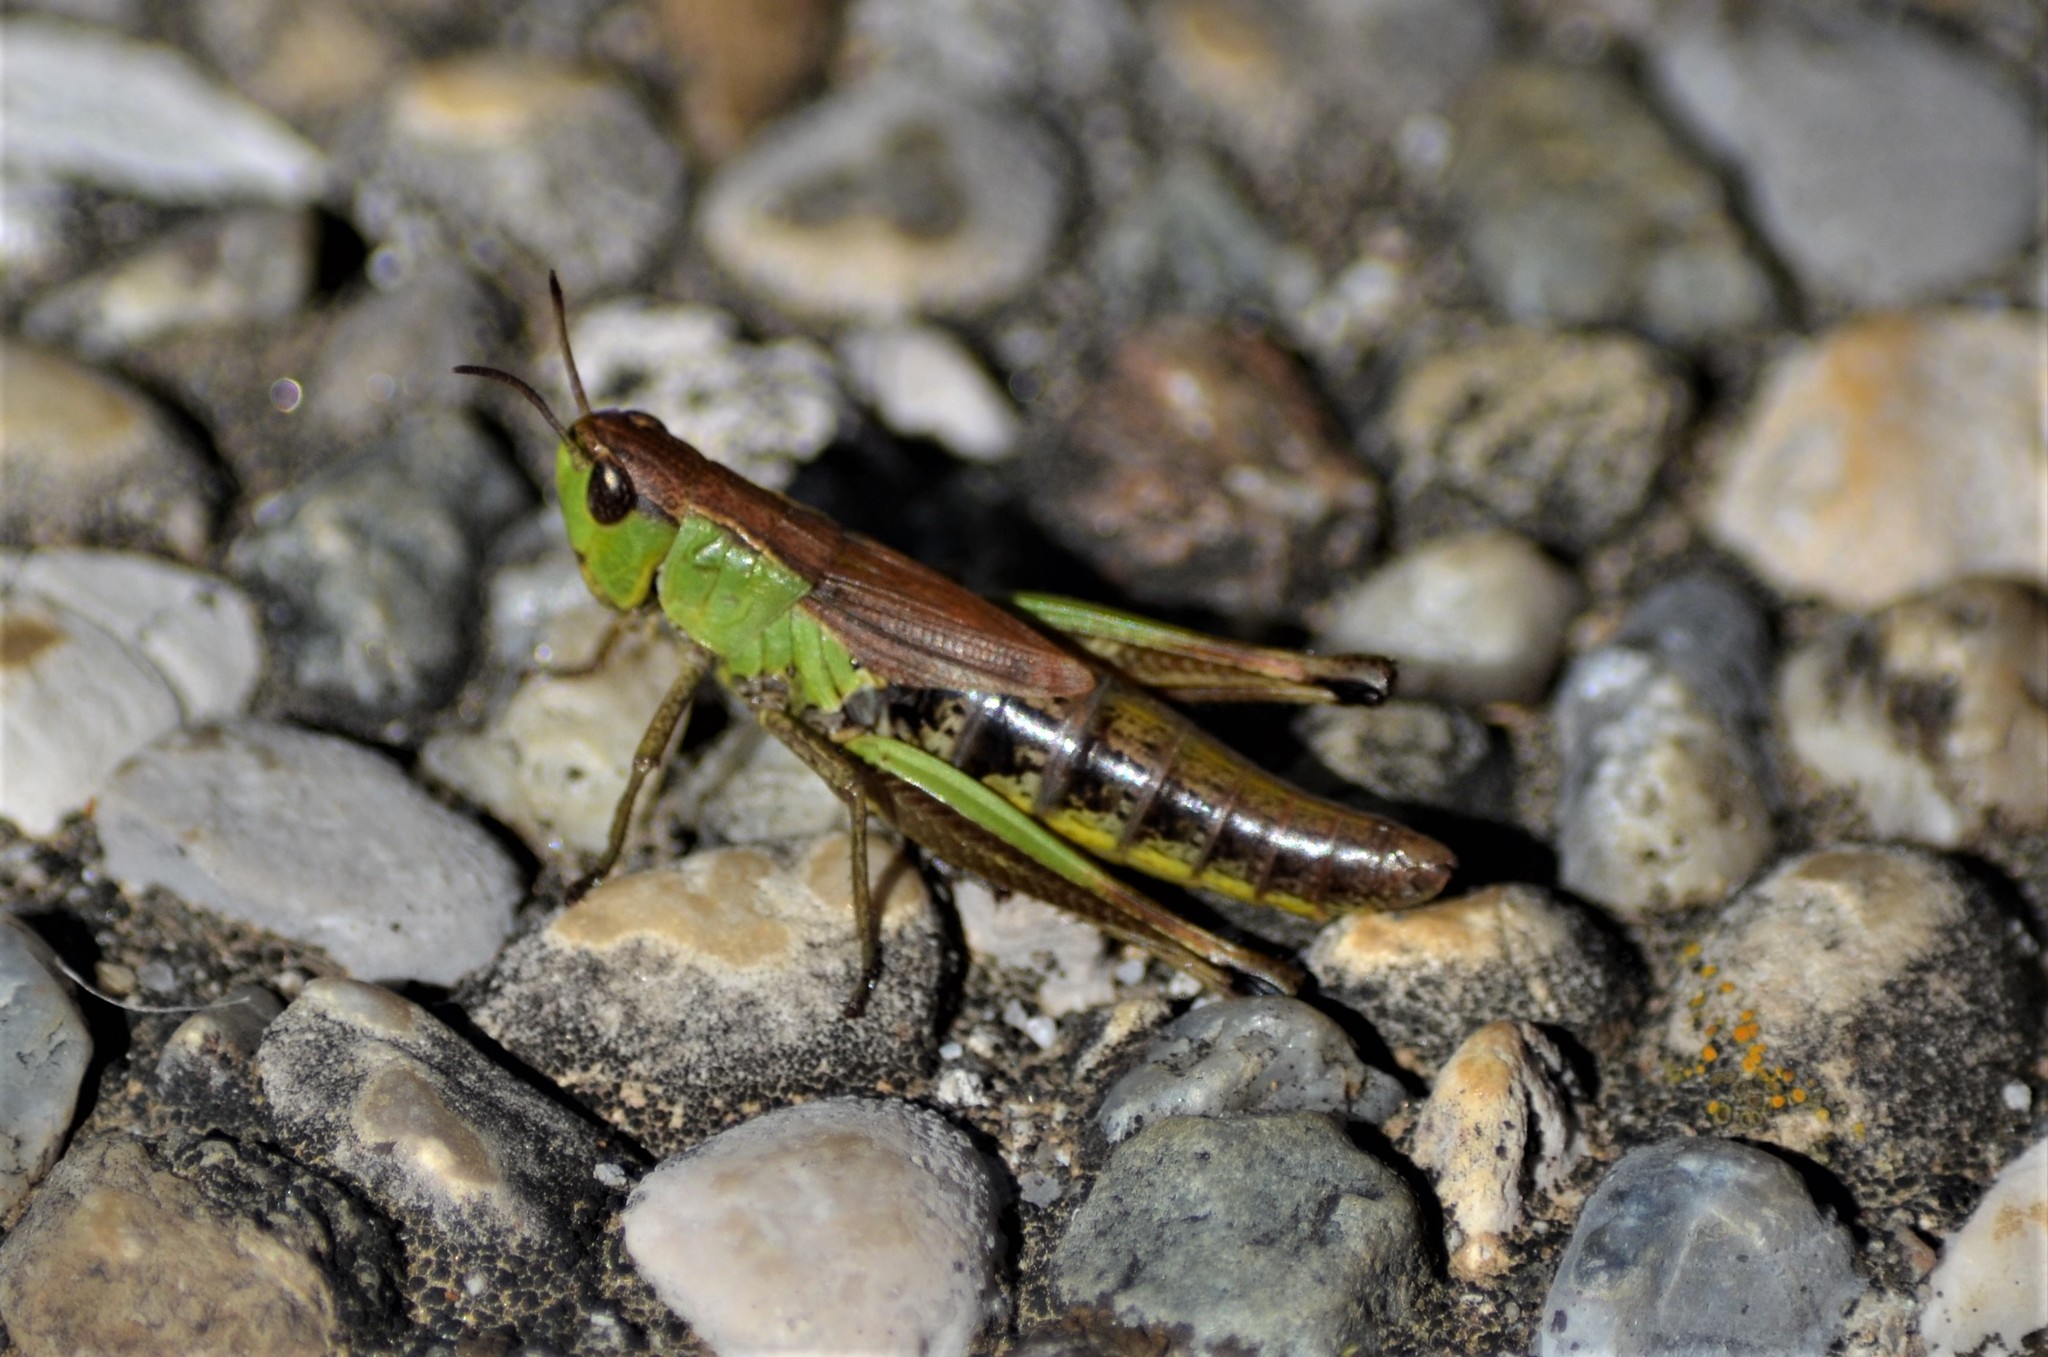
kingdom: Animalia
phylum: Arthropoda
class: Insecta
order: Orthoptera
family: Acrididae
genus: Pseudochorthippus
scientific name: Pseudochorthippus parallelus
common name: Meadow grasshopper
